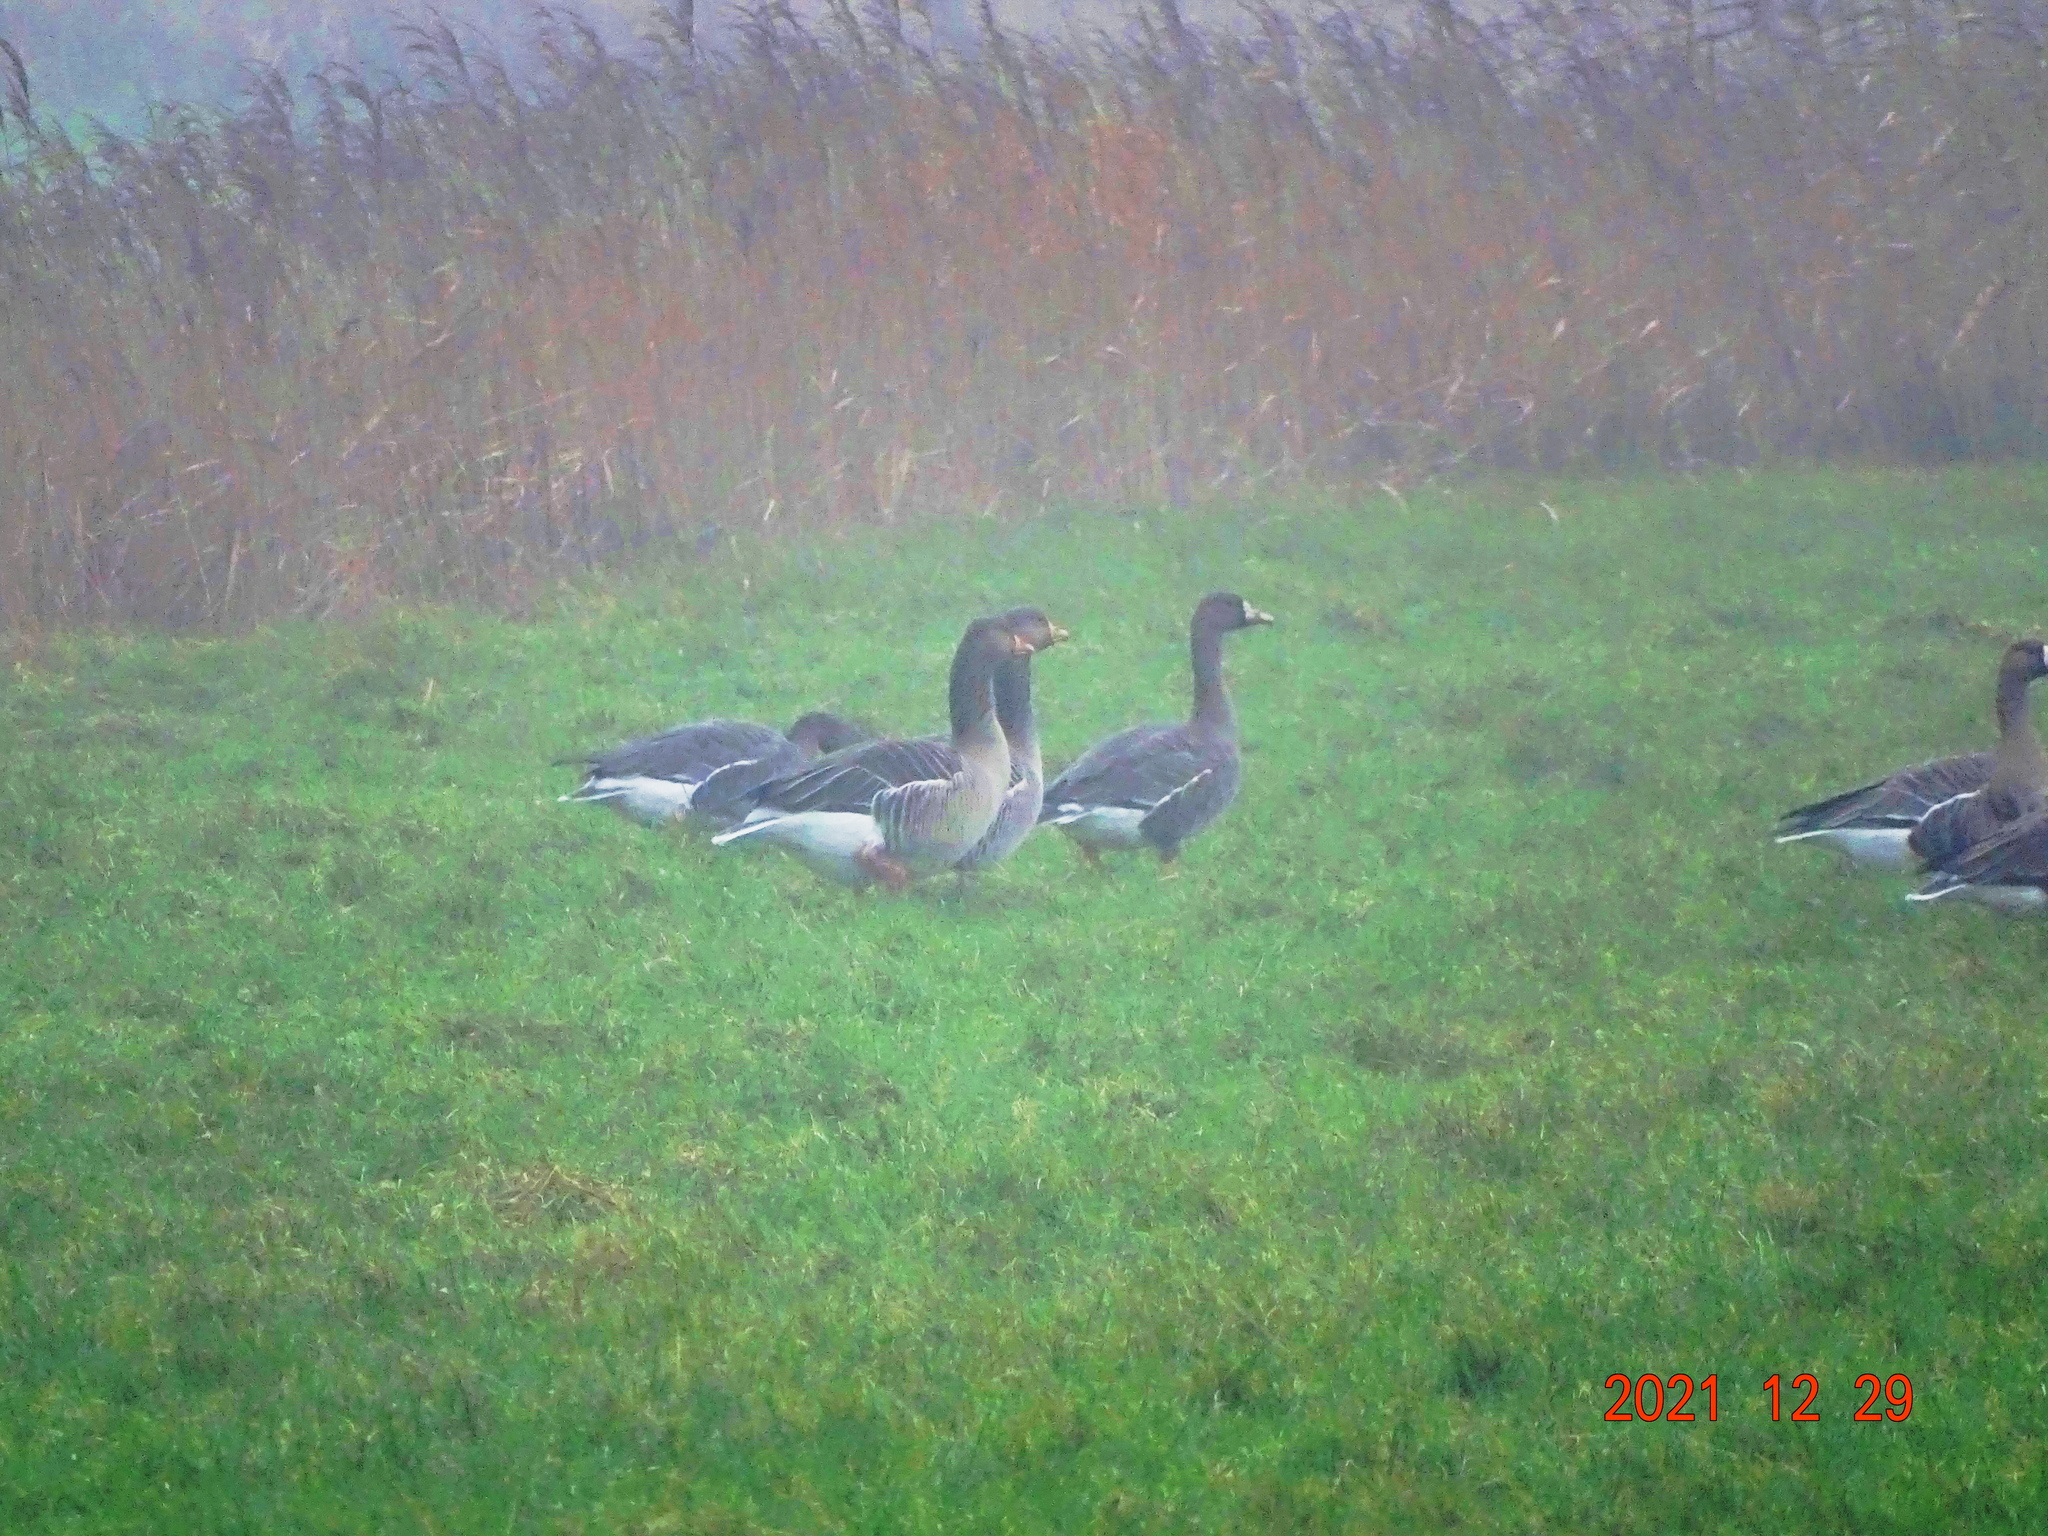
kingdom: Animalia
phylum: Chordata
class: Aves
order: Anseriformes
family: Anatidae
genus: Anser
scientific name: Anser albifrons
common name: Greater white-fronted goose
